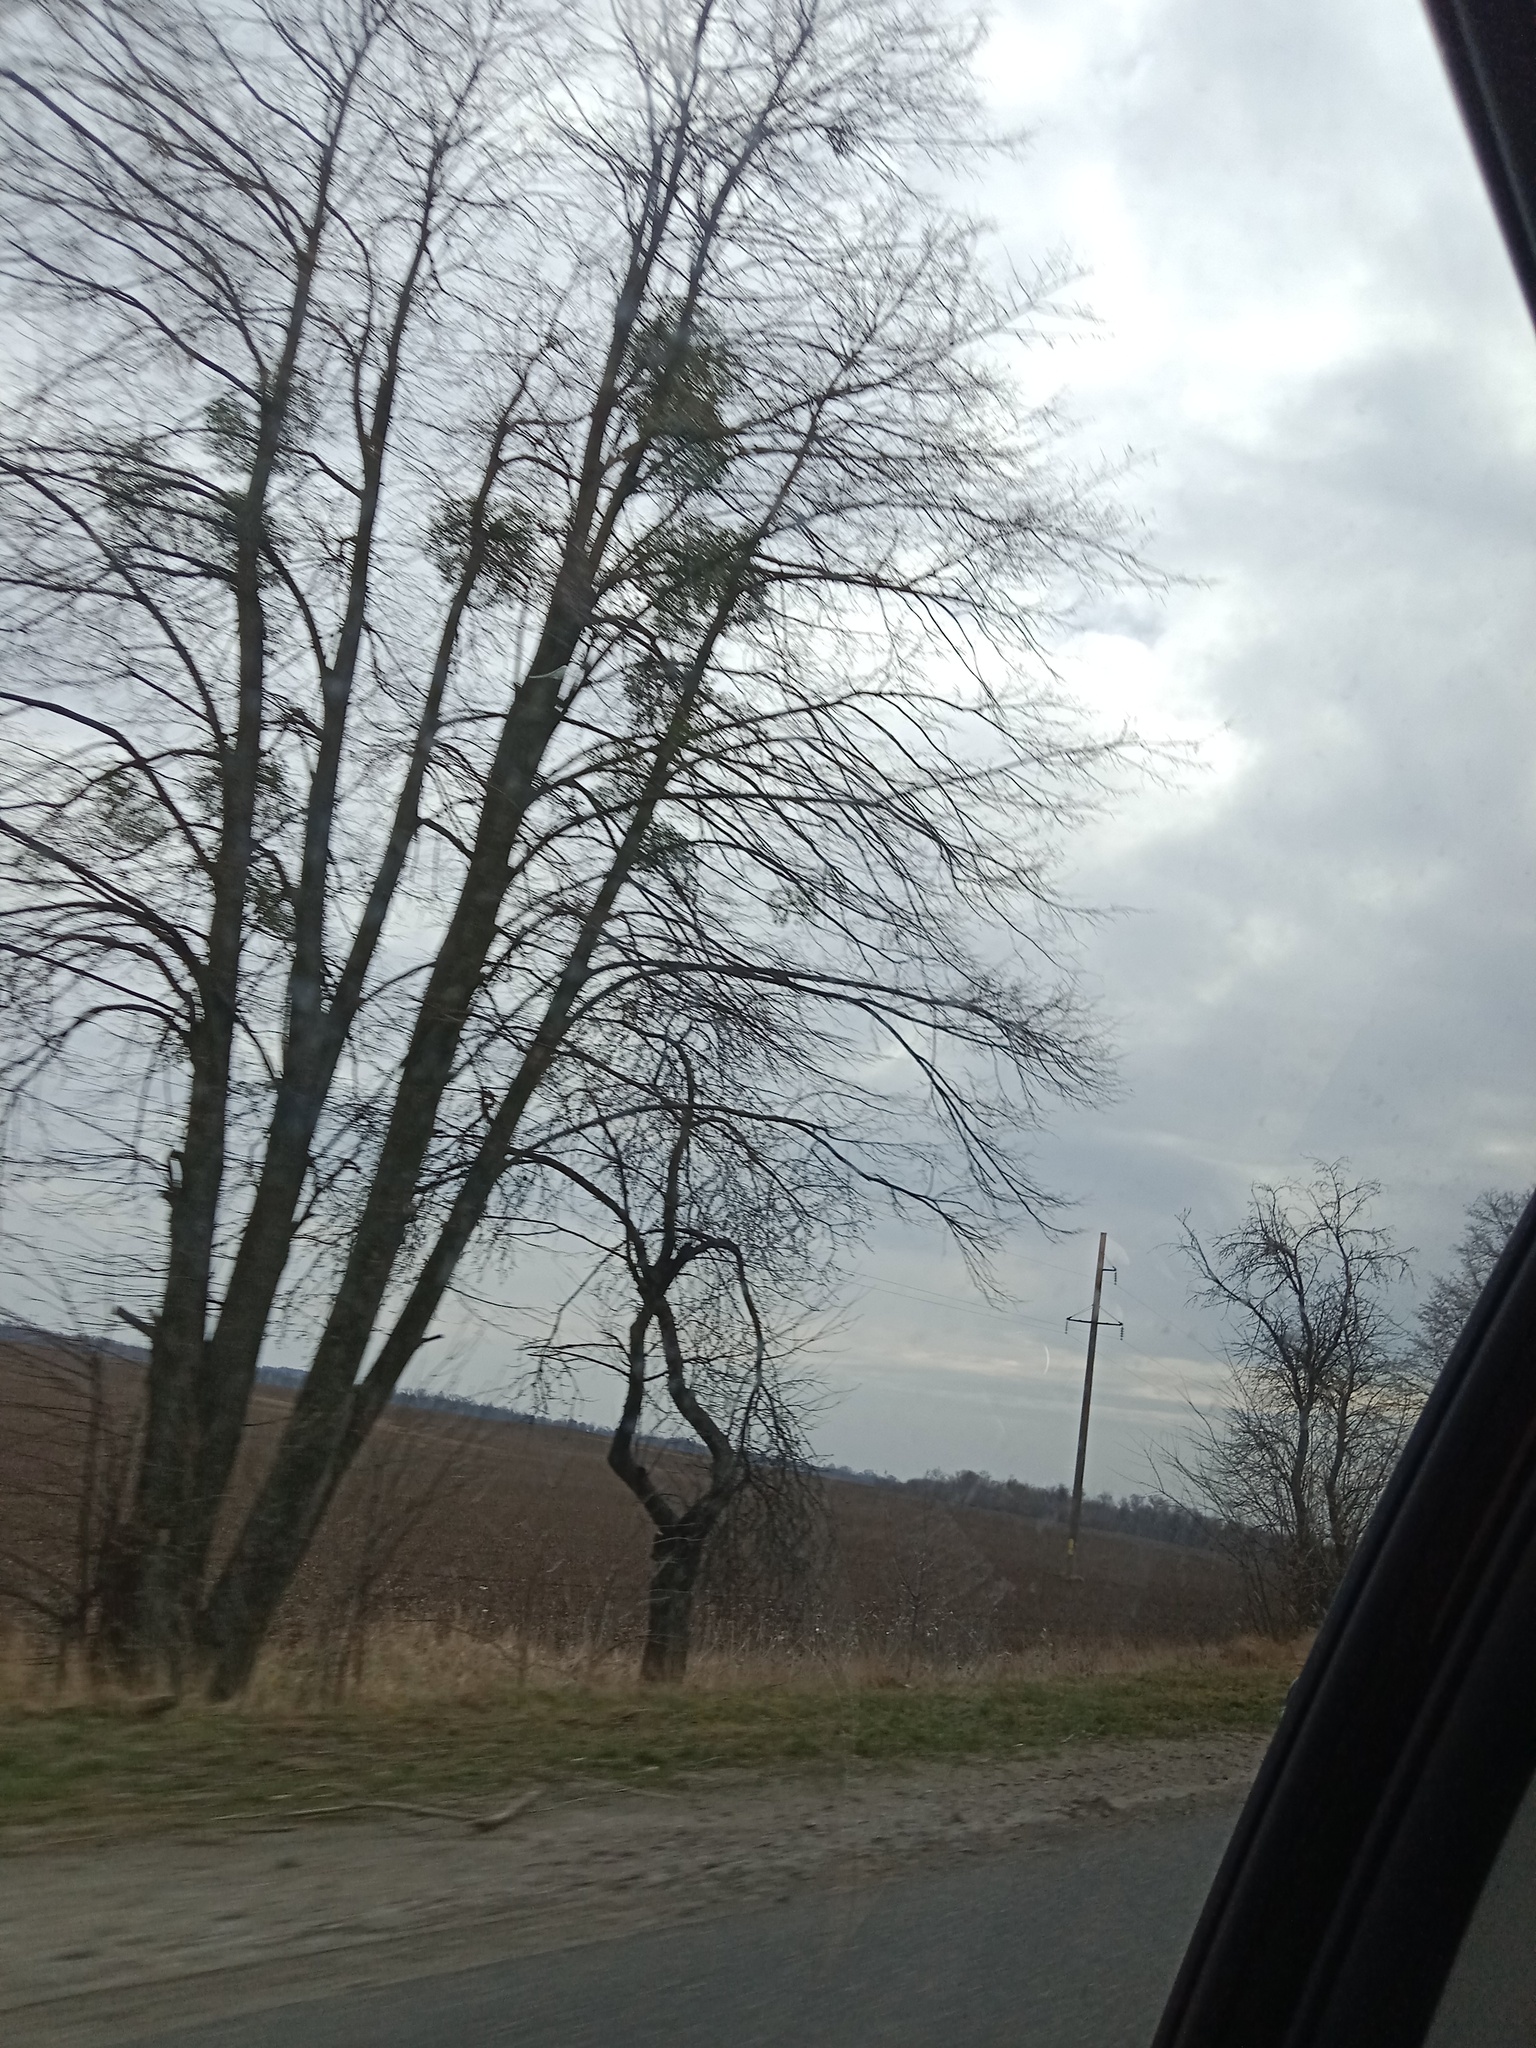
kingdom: Plantae
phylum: Tracheophyta
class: Magnoliopsida
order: Santalales
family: Viscaceae
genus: Viscum
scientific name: Viscum album
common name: Mistletoe
